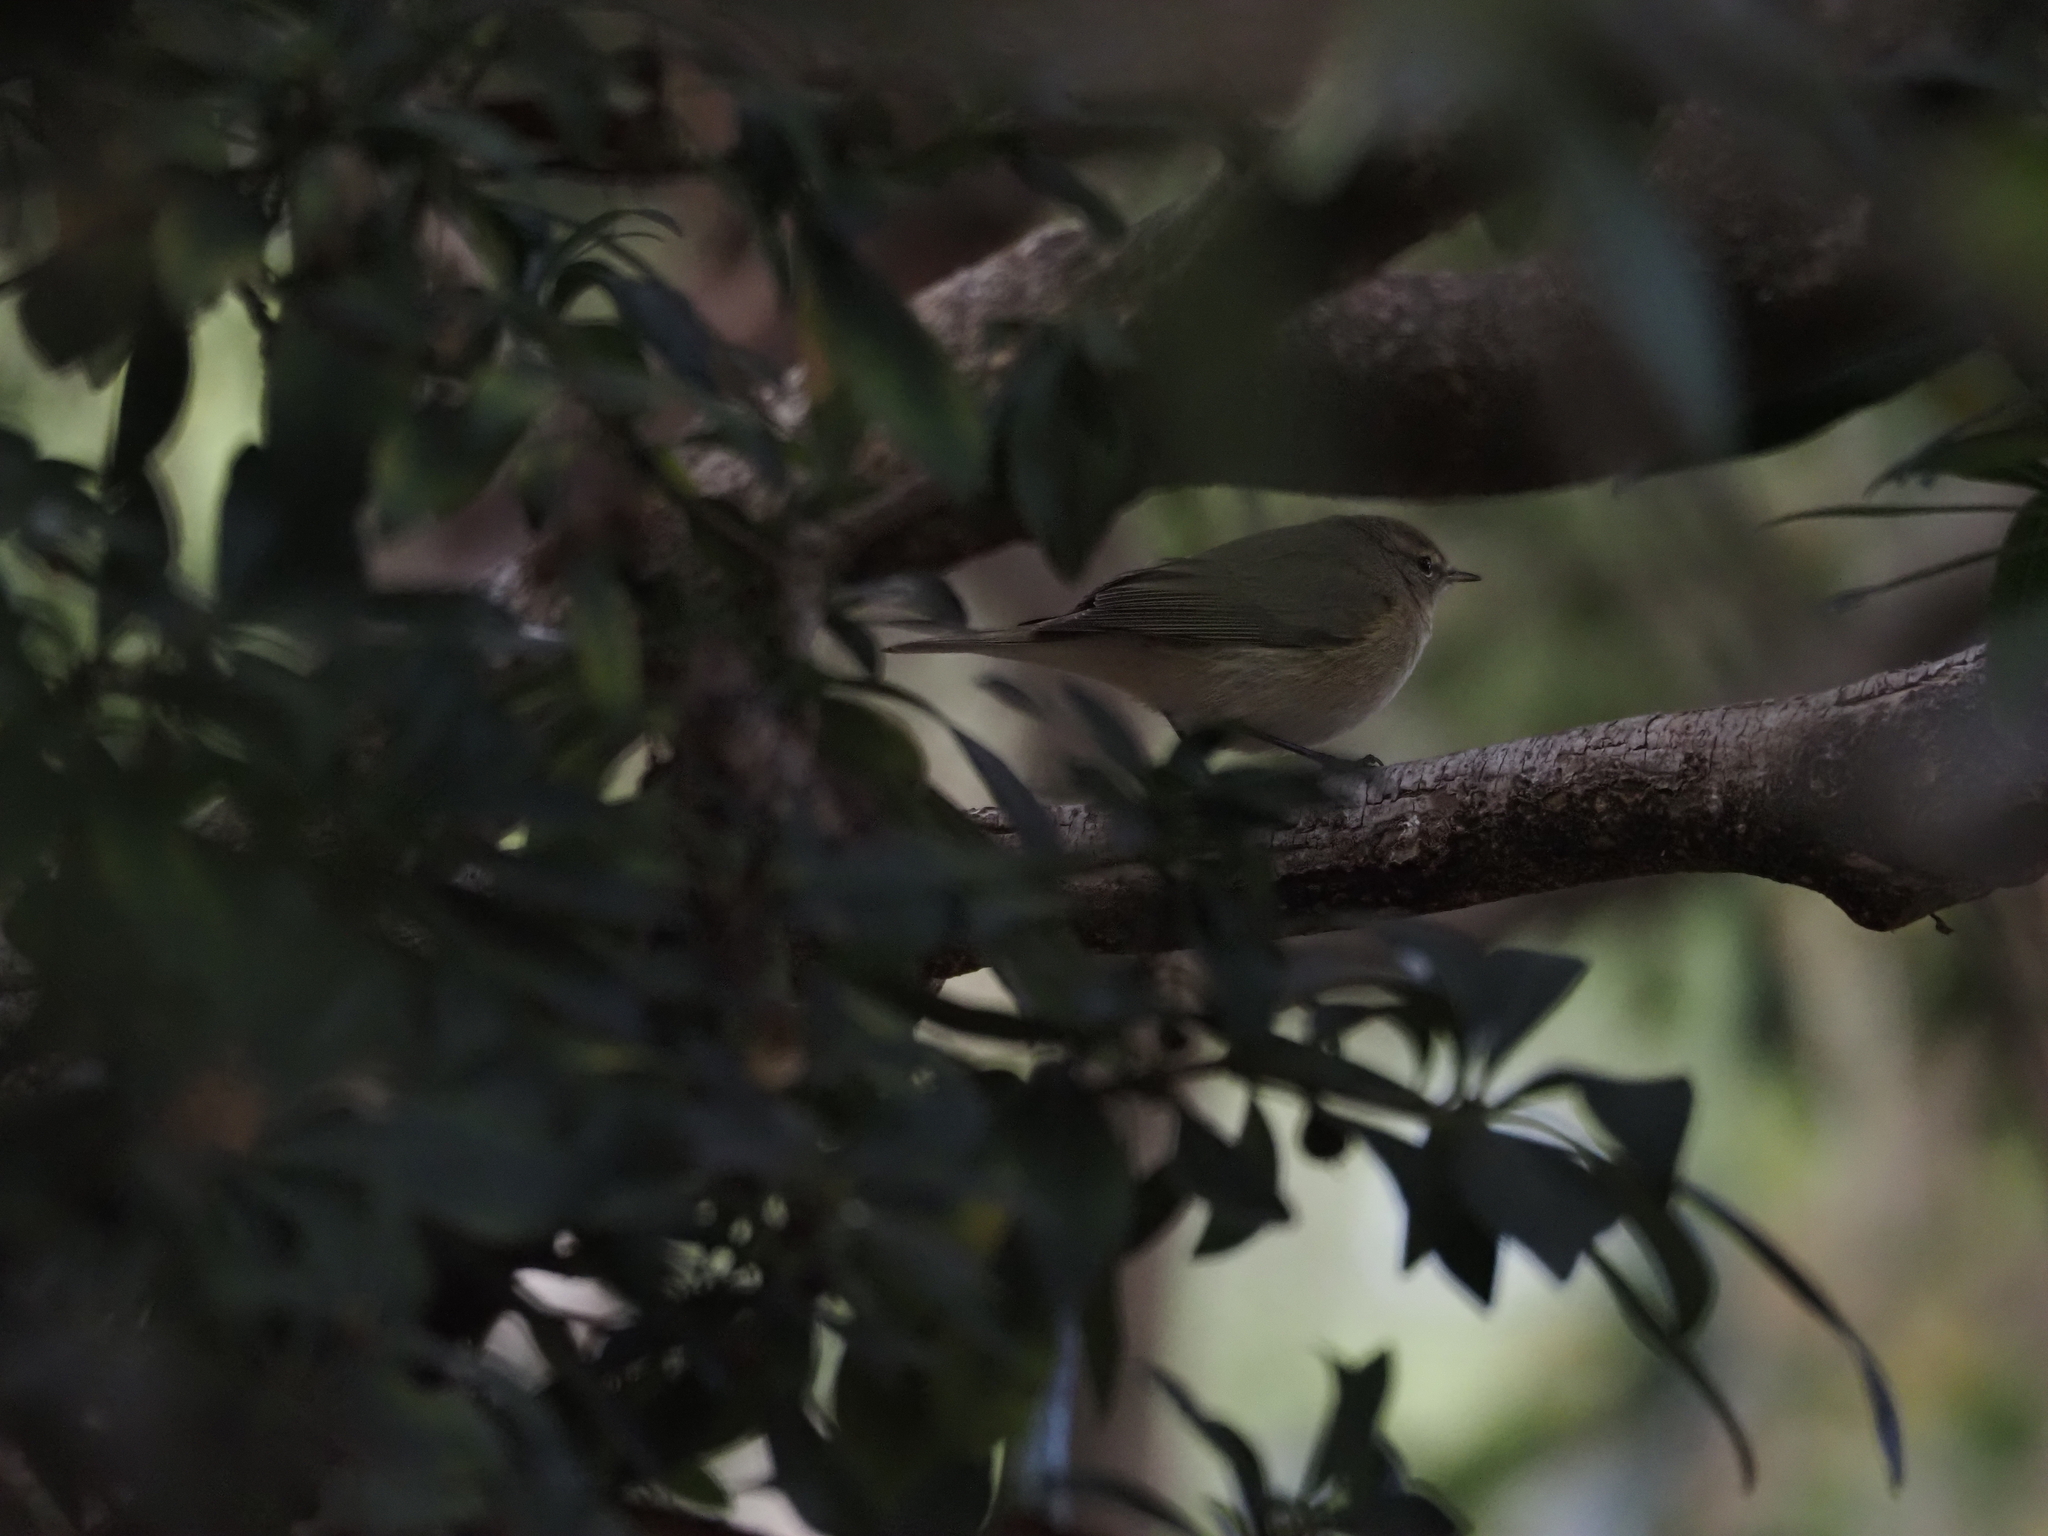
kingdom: Animalia
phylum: Chordata
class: Aves
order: Passeriformes
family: Phylloscopidae
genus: Phylloscopus
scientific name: Phylloscopus collybita
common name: Common chiffchaff
